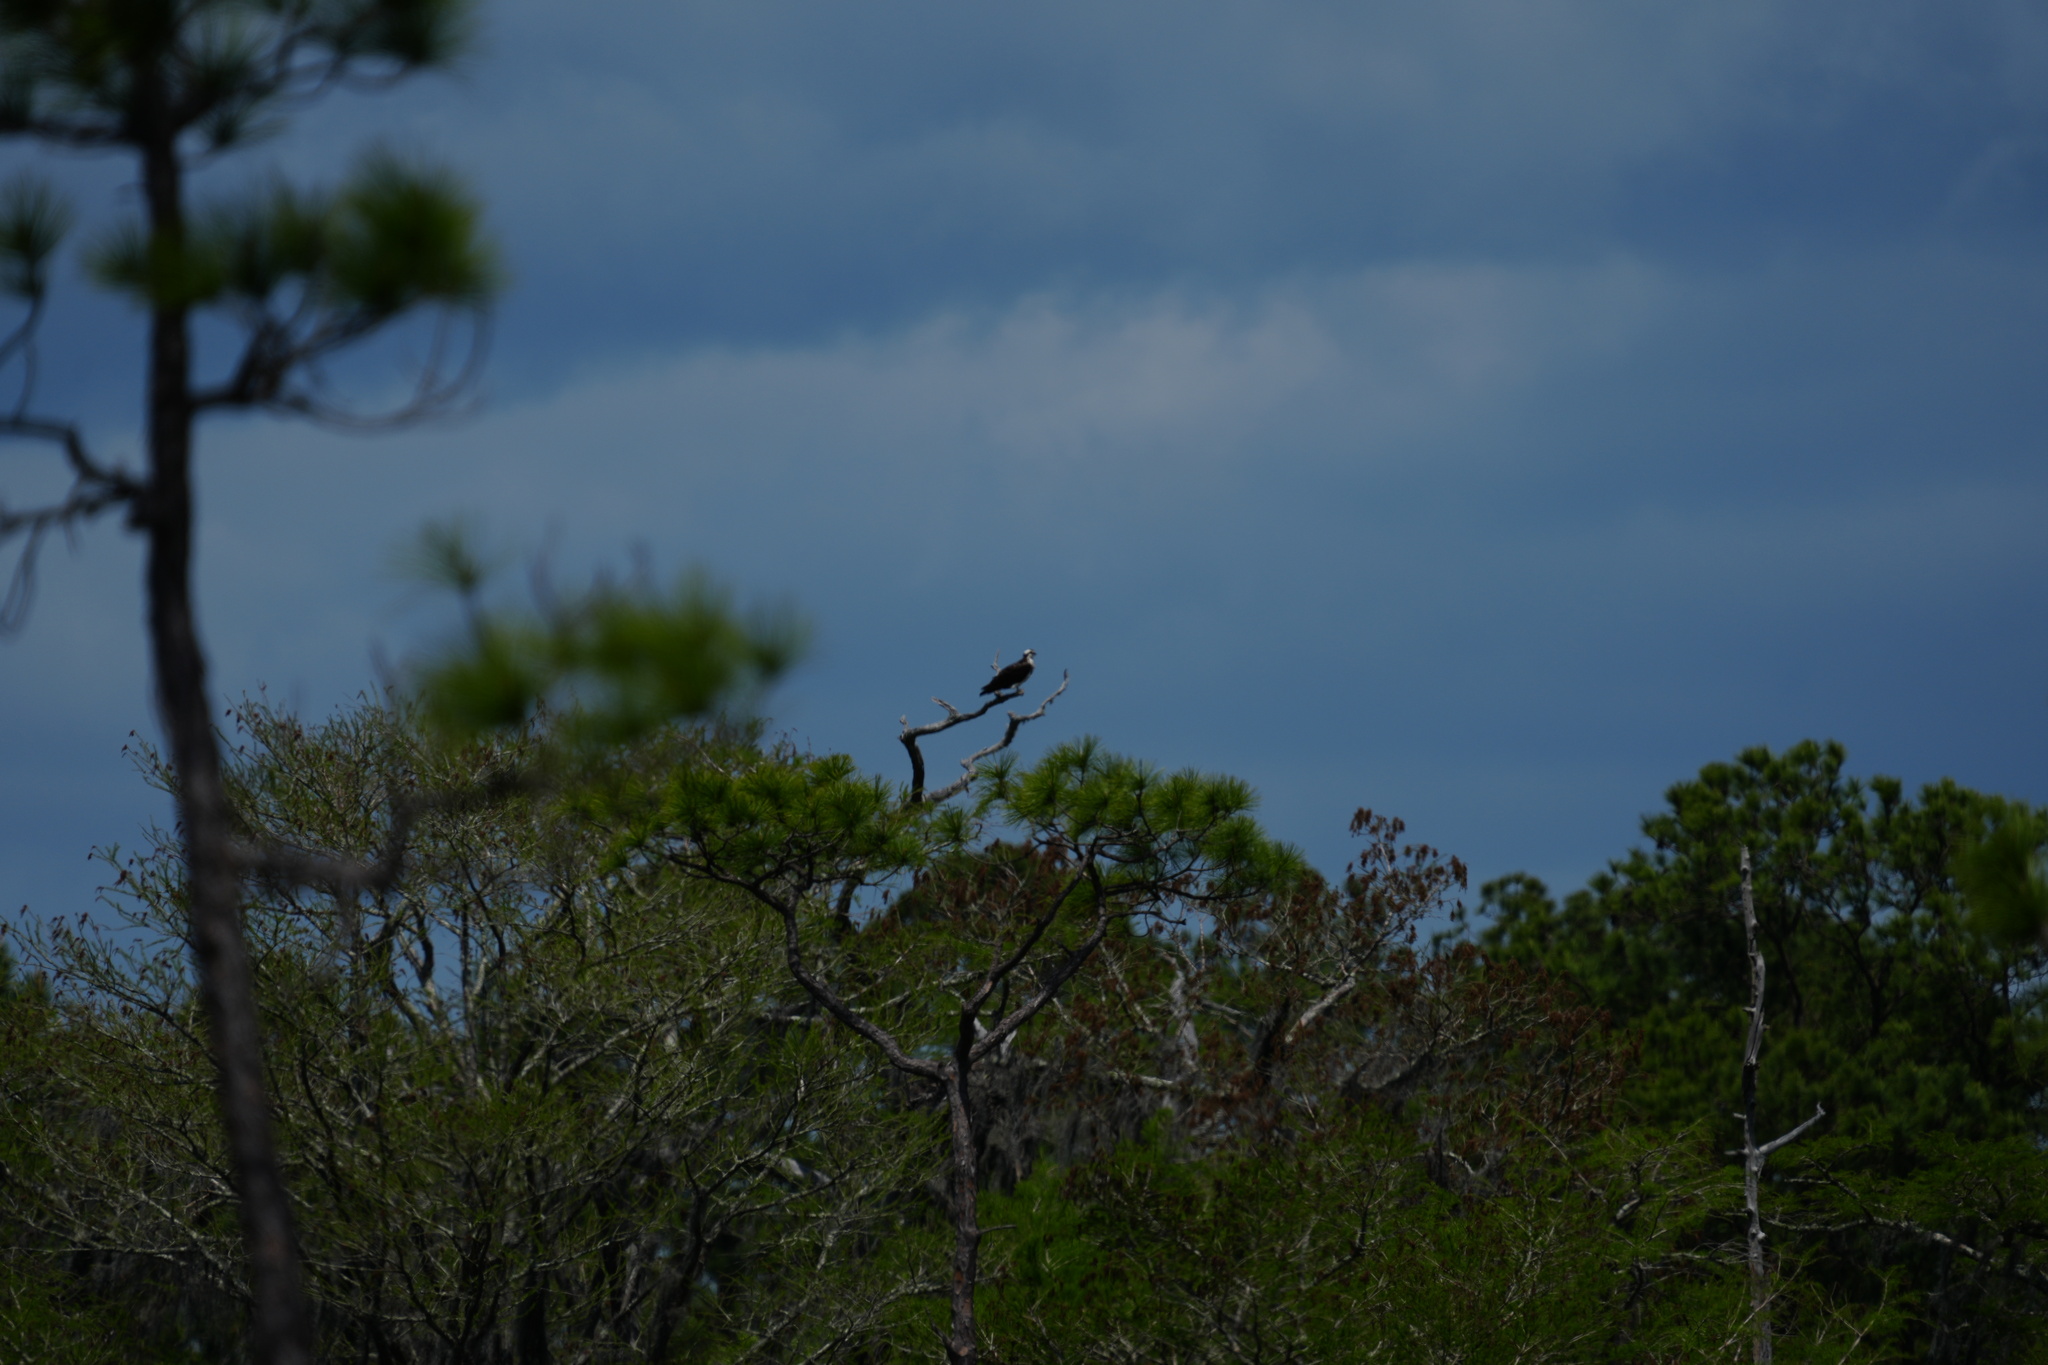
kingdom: Animalia
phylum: Chordata
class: Aves
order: Accipitriformes
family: Pandionidae
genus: Pandion
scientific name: Pandion haliaetus
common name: Osprey
